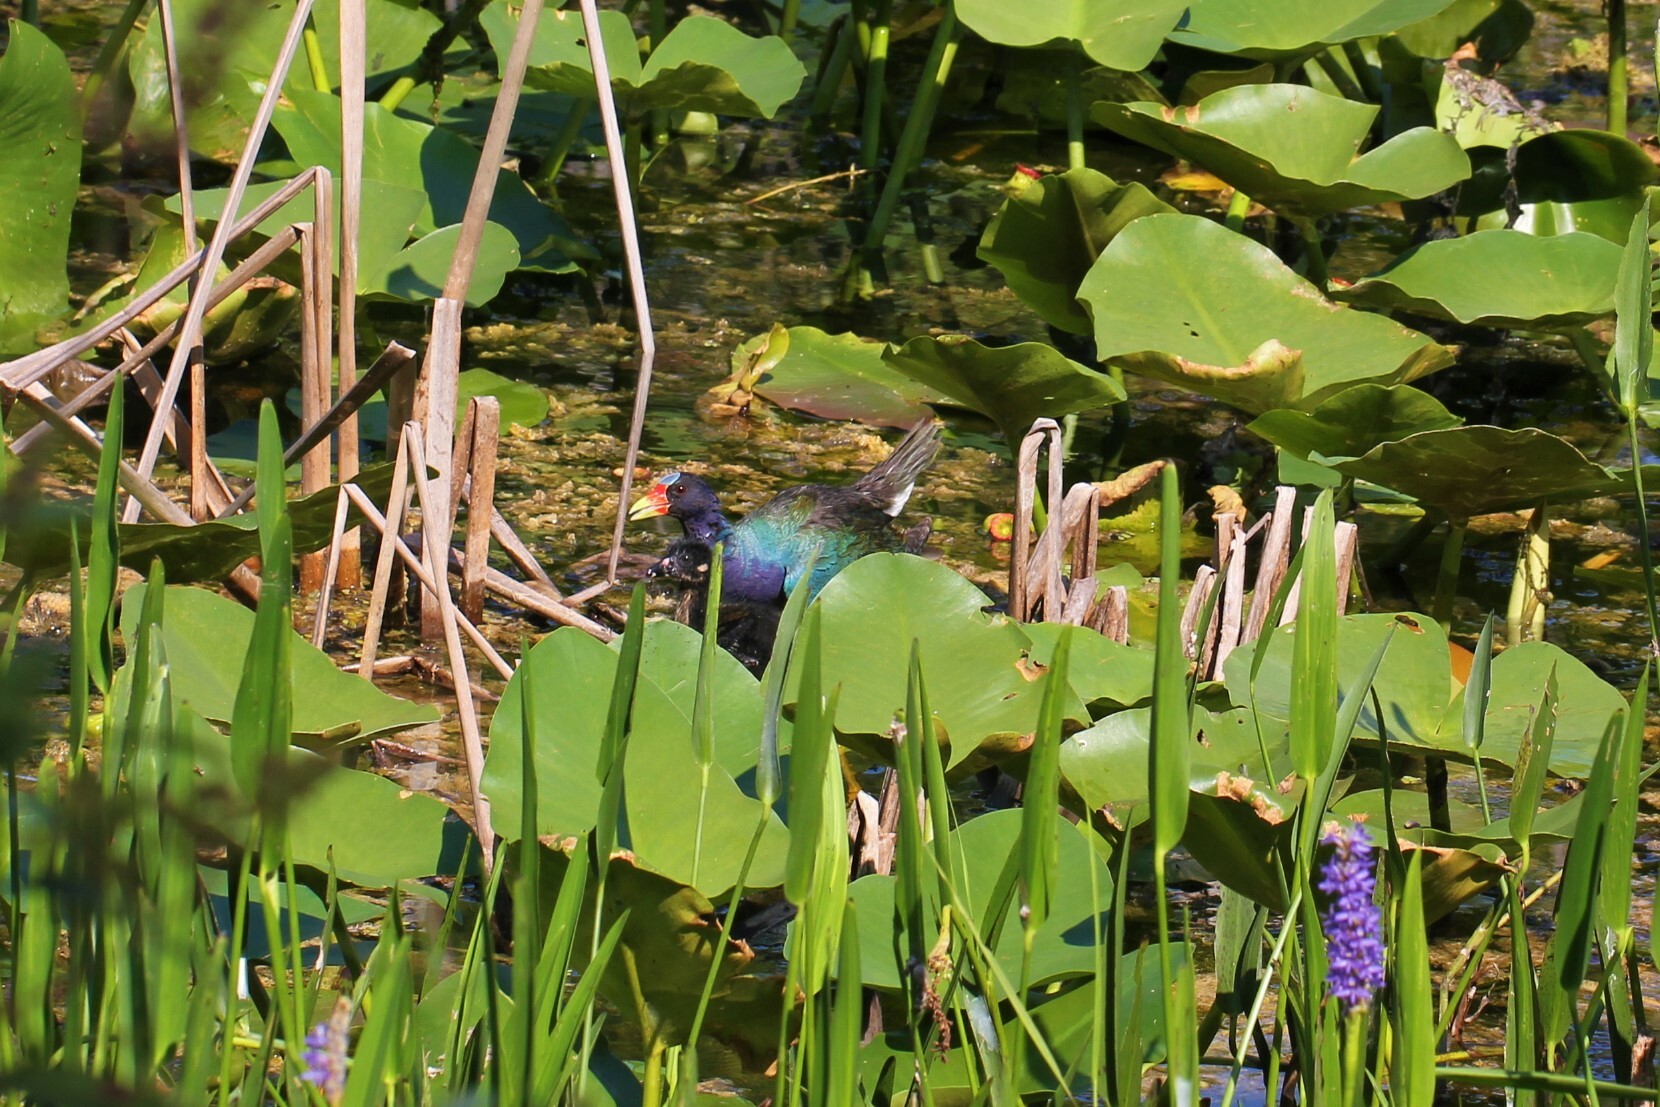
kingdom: Animalia
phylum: Chordata
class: Aves
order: Gruiformes
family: Rallidae
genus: Porphyrio
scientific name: Porphyrio martinica
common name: Purple gallinule
